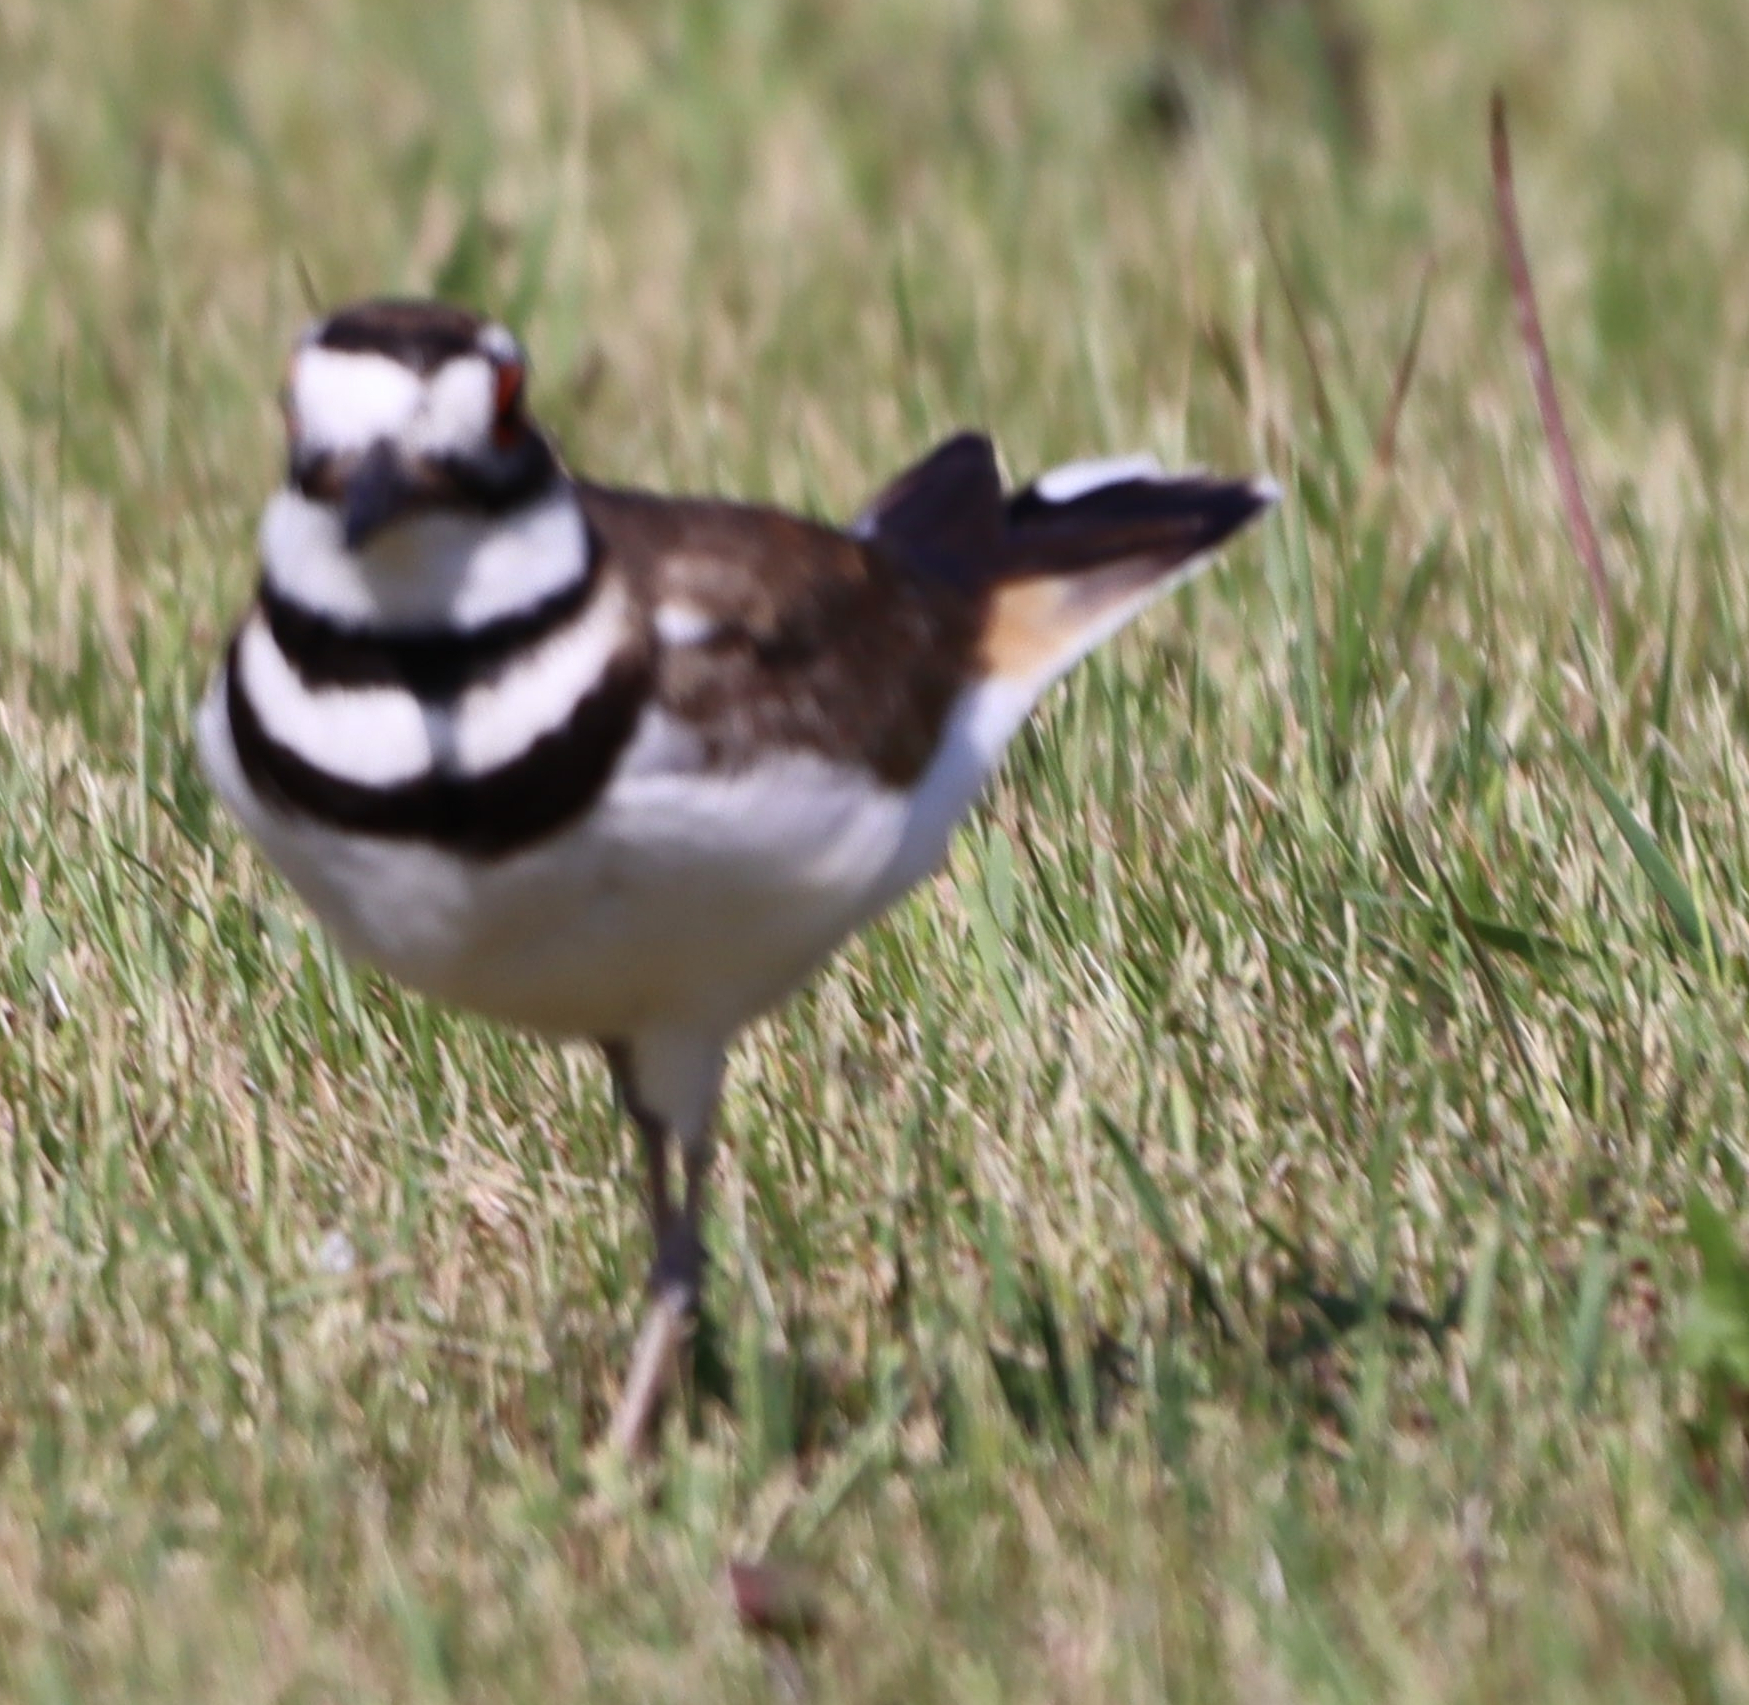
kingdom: Animalia
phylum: Chordata
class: Aves
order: Charadriiformes
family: Charadriidae
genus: Charadrius
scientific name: Charadrius vociferus
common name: Killdeer
